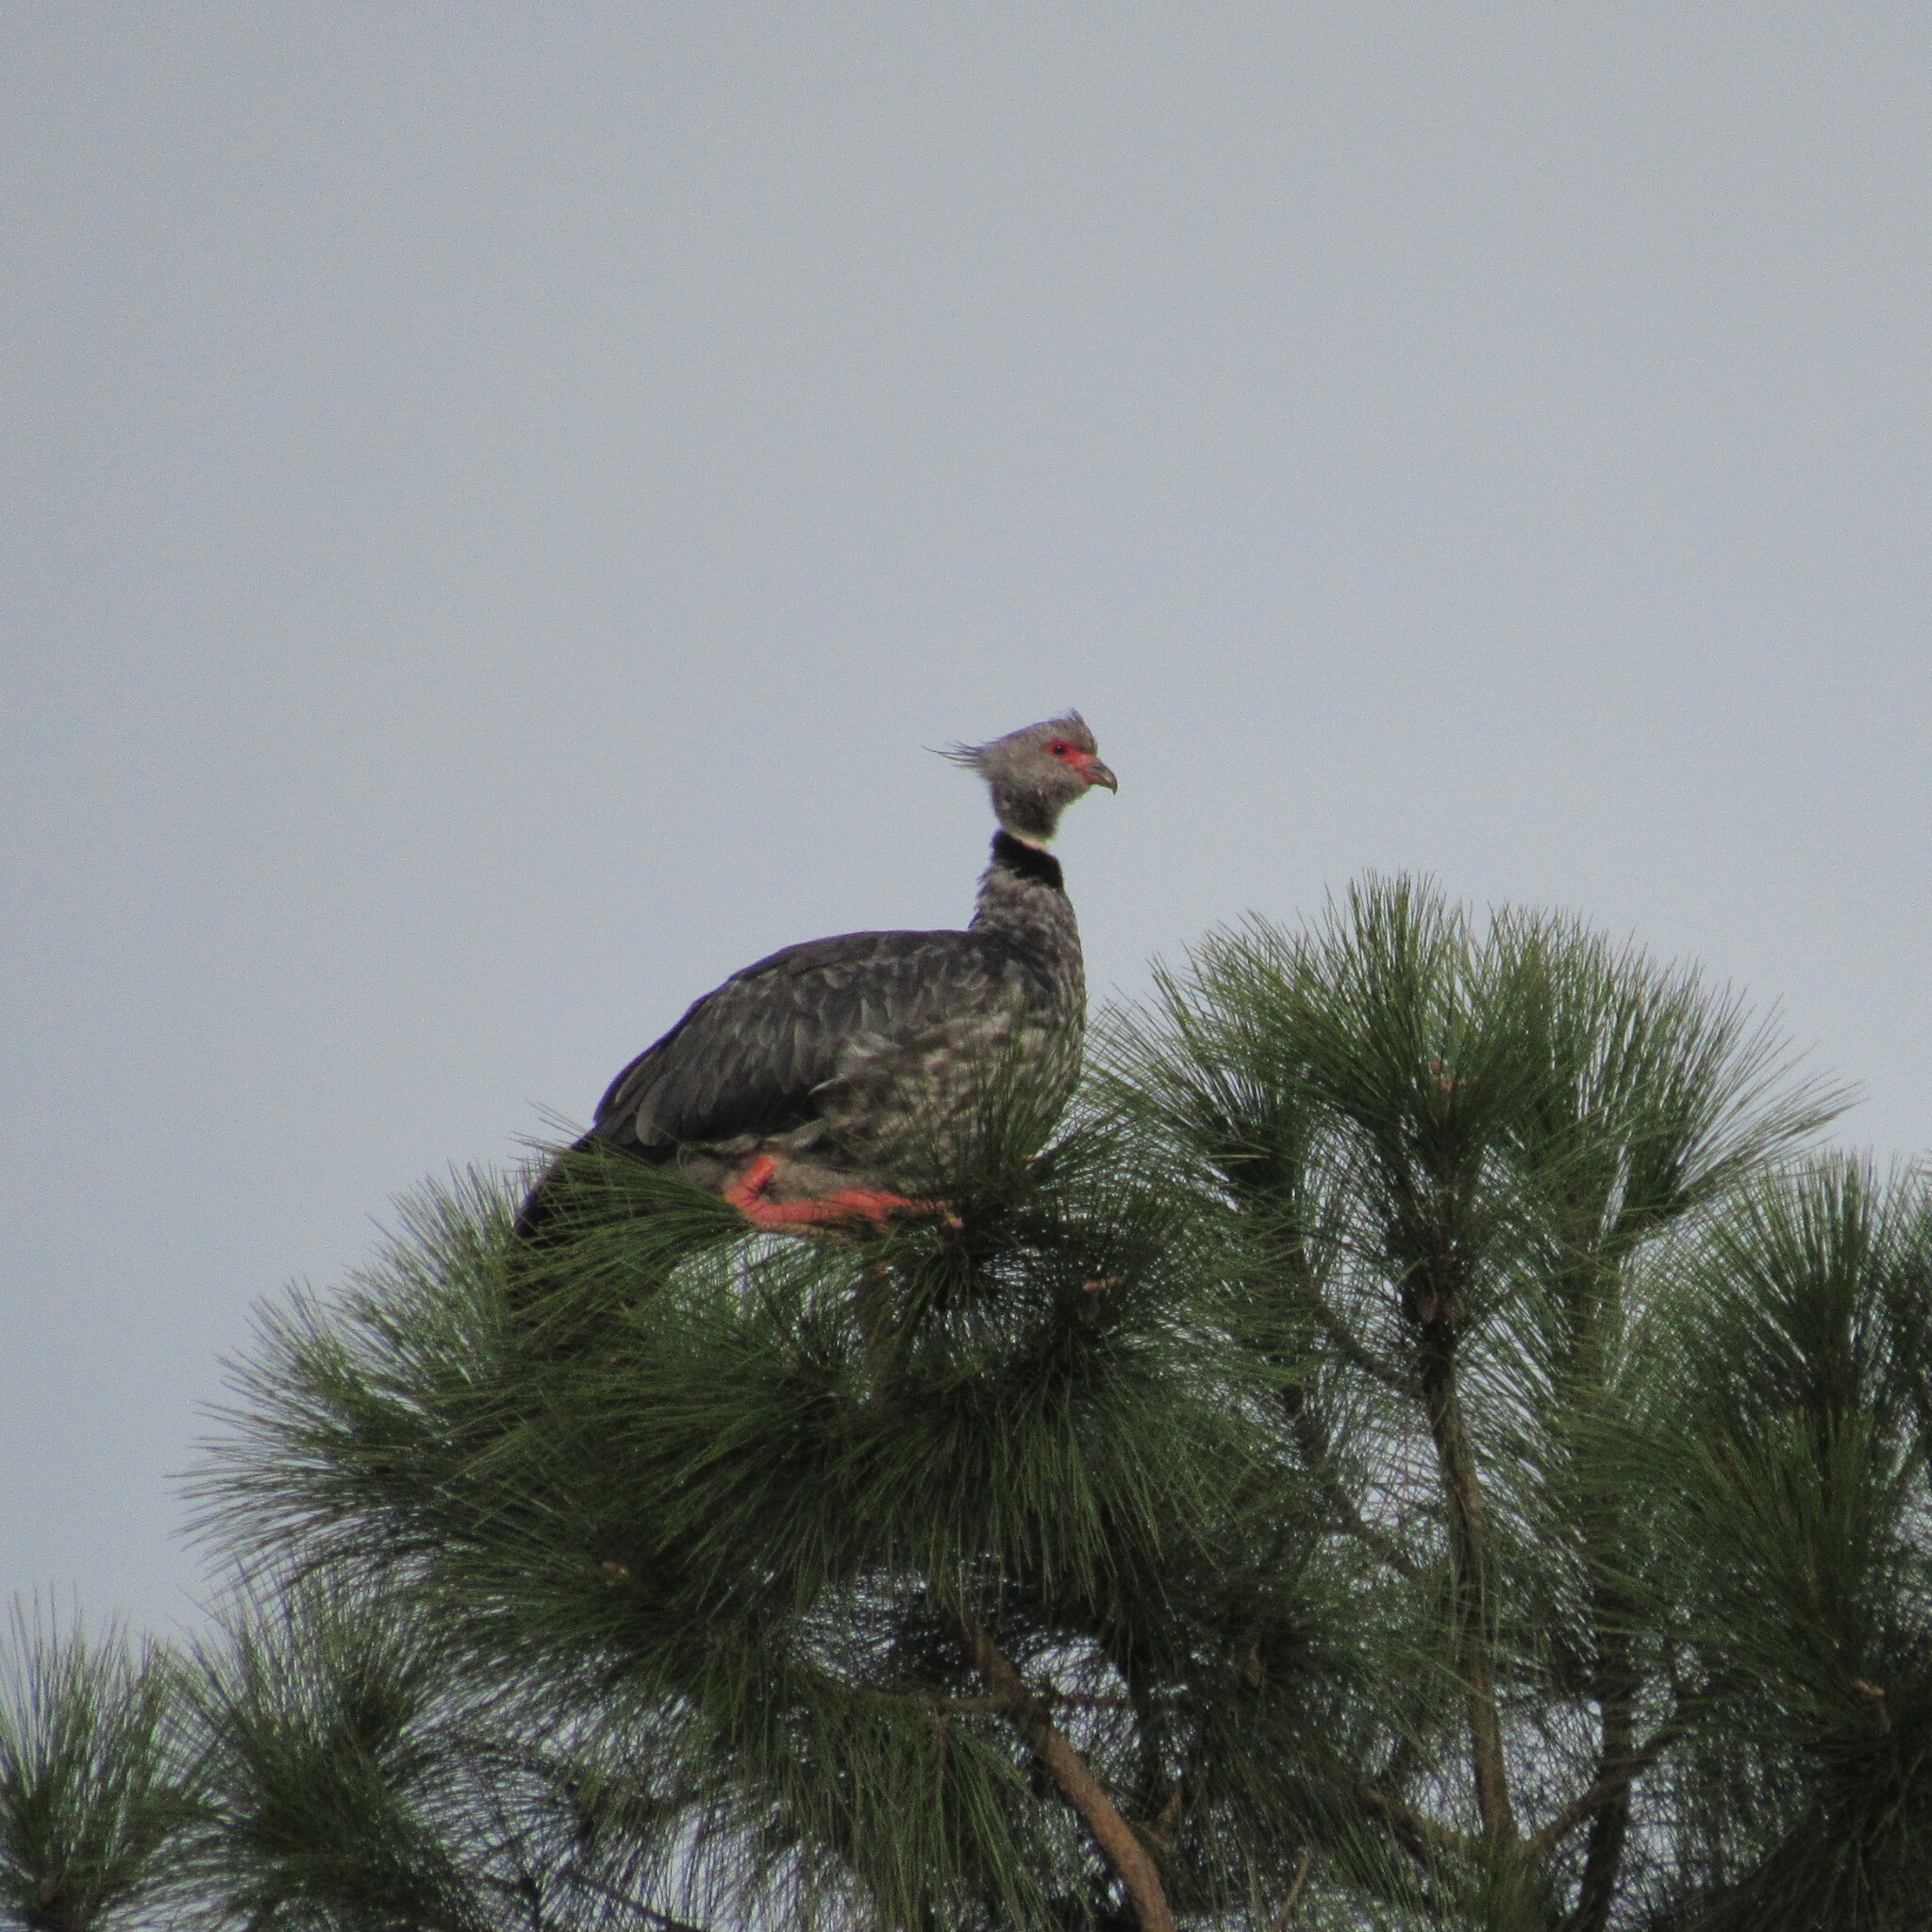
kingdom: Animalia
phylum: Chordata
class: Aves
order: Anseriformes
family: Anhimidae
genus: Chauna
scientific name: Chauna torquata
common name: Southern screamer
